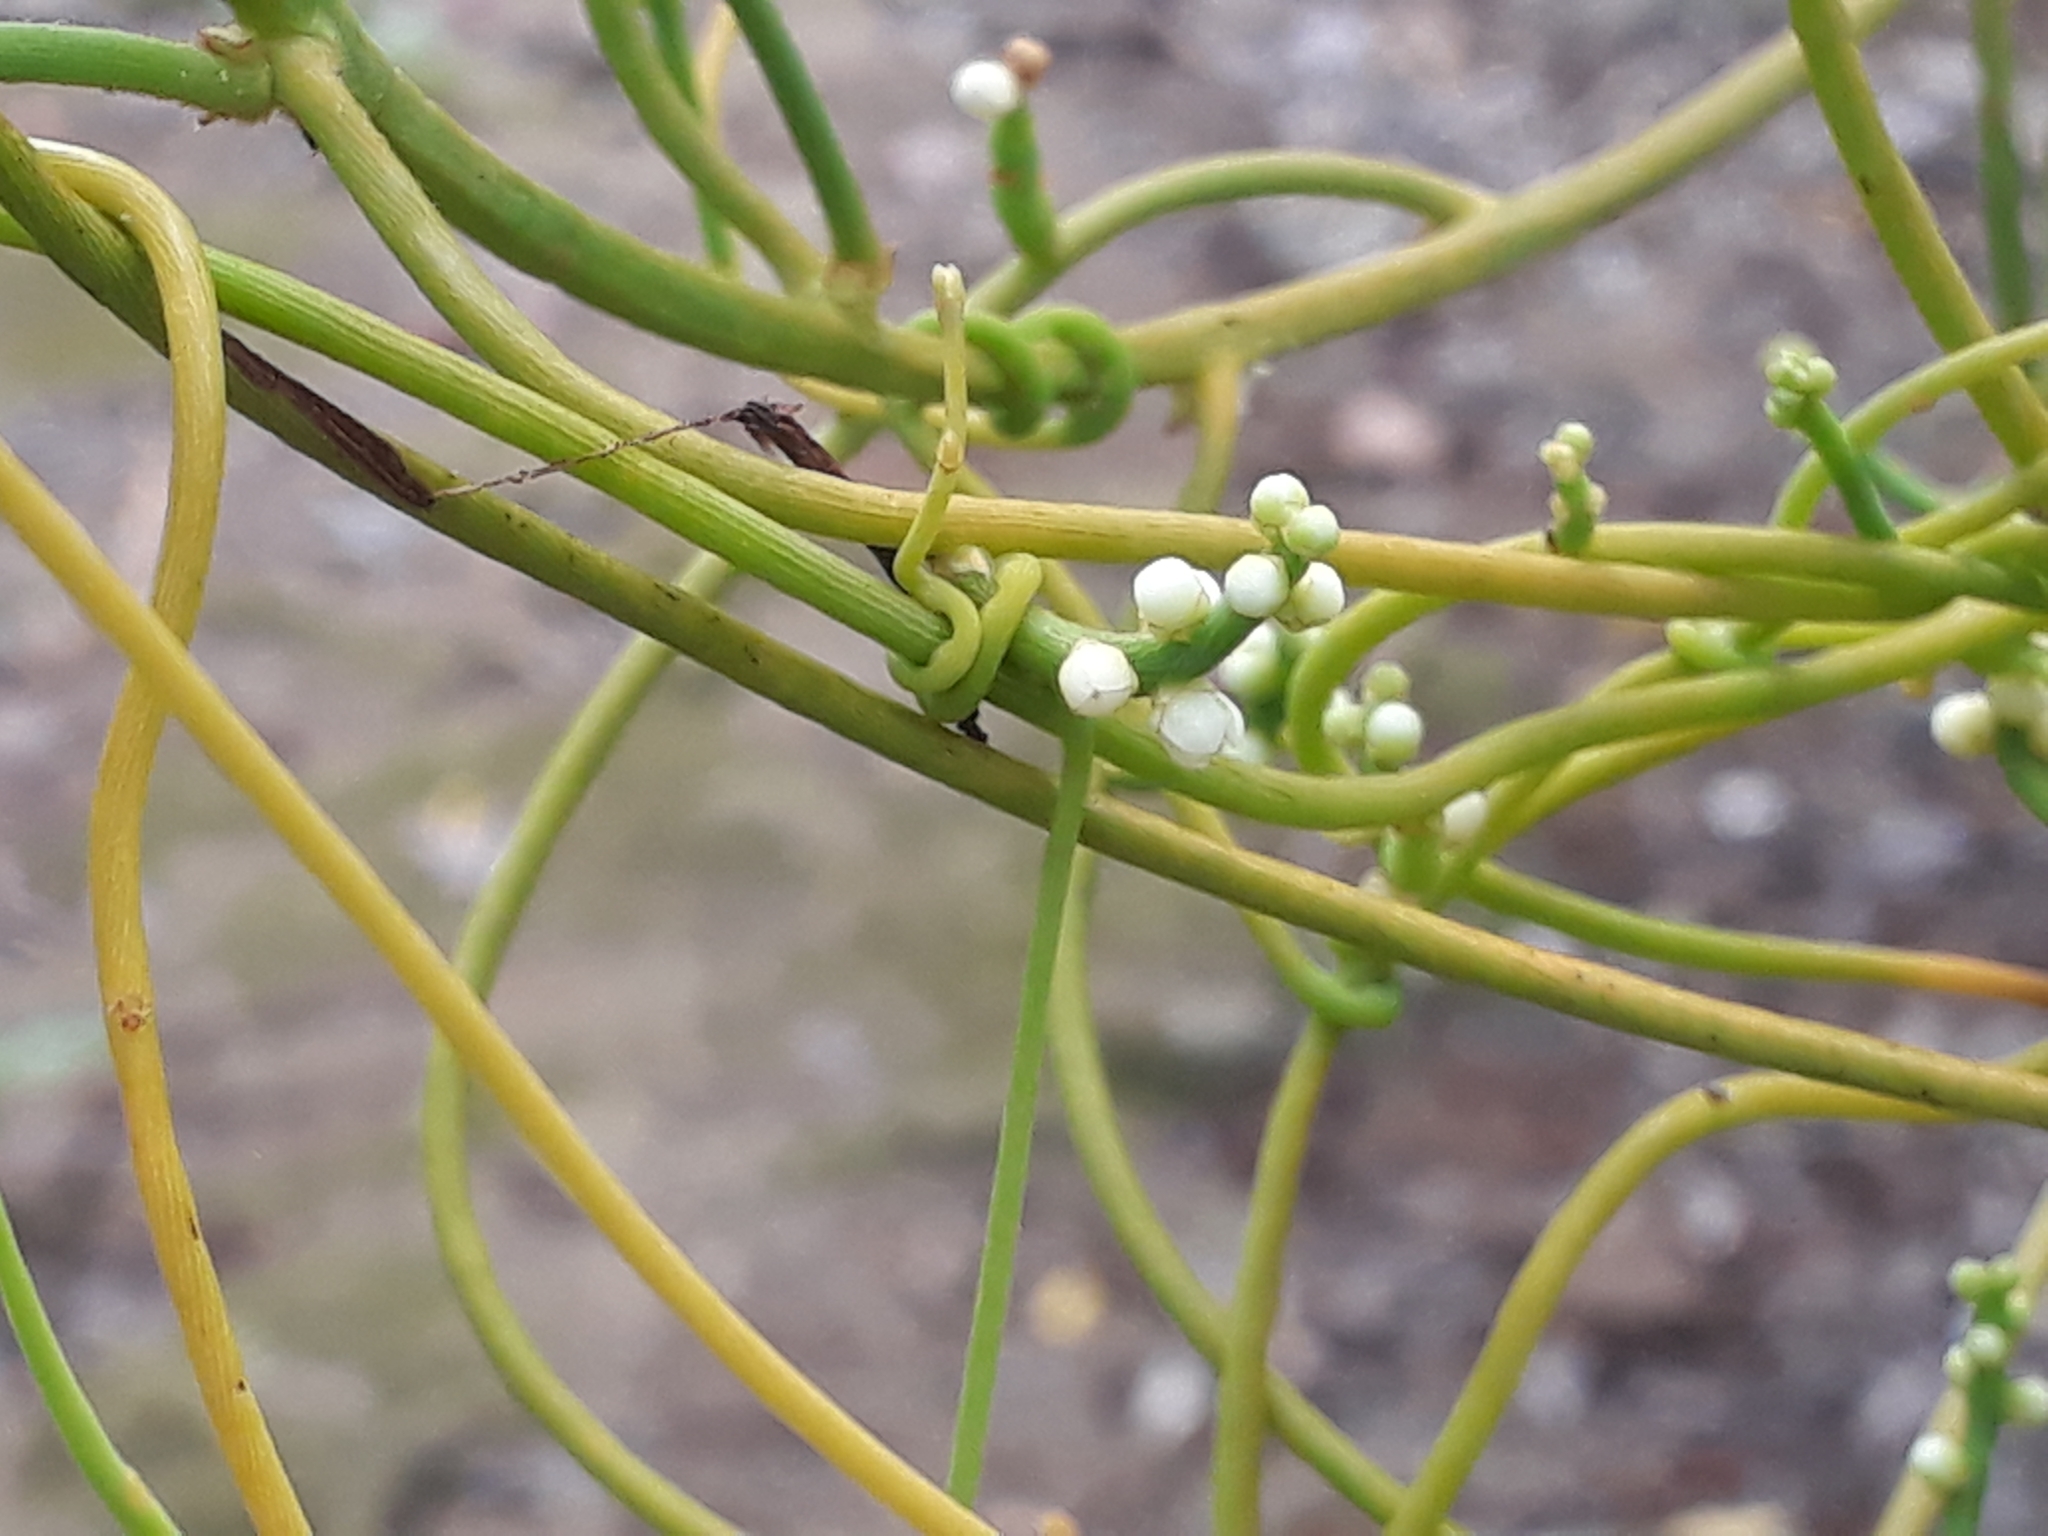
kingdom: Plantae
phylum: Tracheophyta
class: Magnoliopsida
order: Laurales
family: Lauraceae
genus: Cassytha
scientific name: Cassytha filiformis
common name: Dodder-laurel
